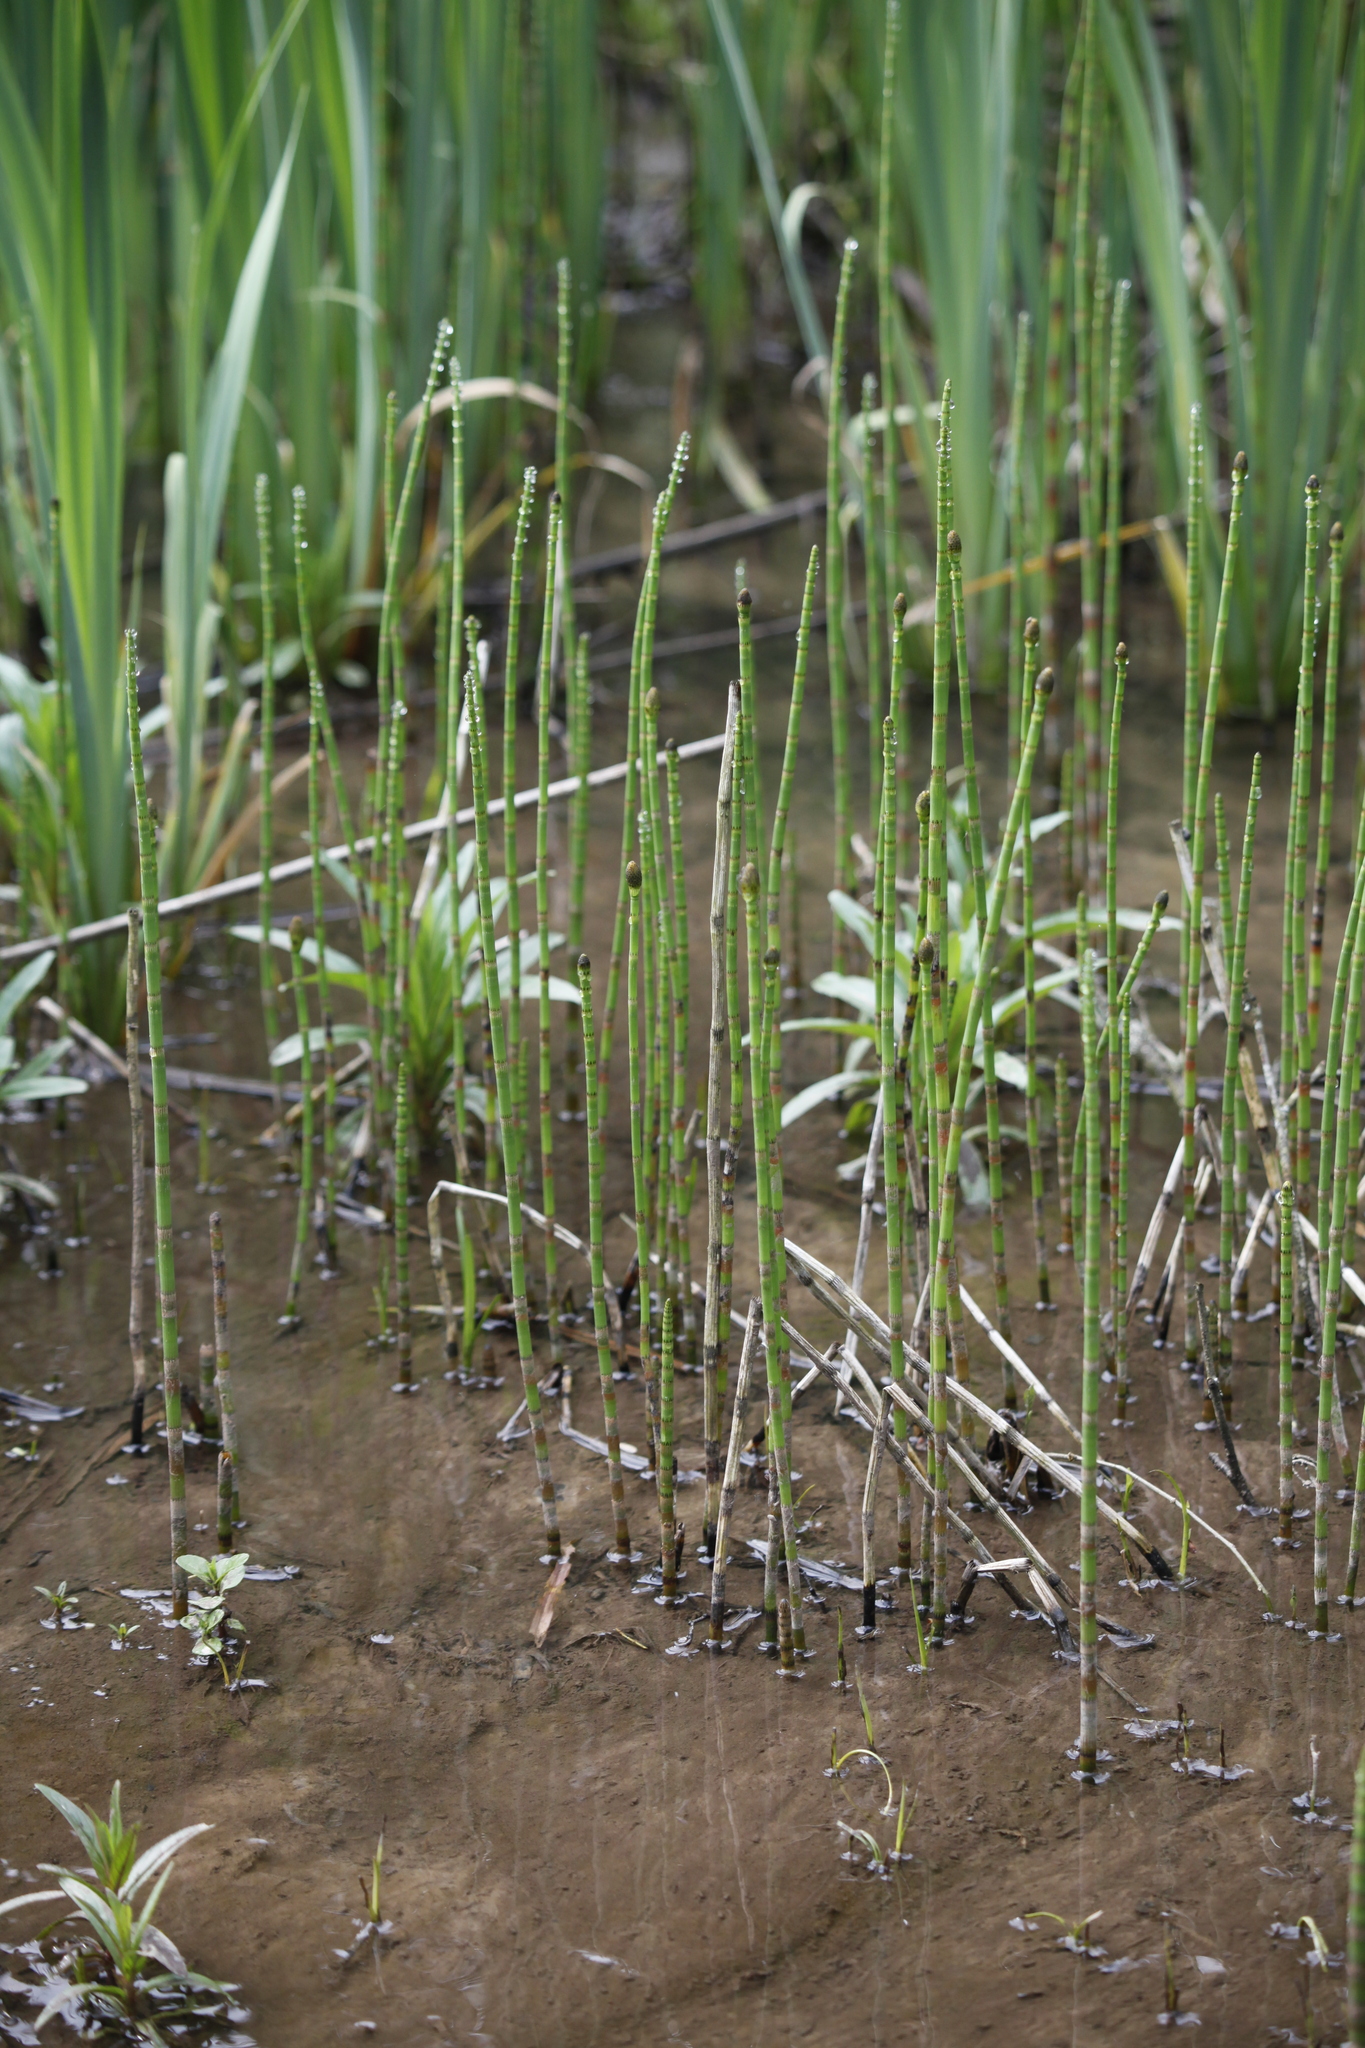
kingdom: Plantae
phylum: Tracheophyta
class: Polypodiopsida
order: Equisetales
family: Equisetaceae
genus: Equisetum
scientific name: Equisetum fluviatile
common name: Water horsetail
